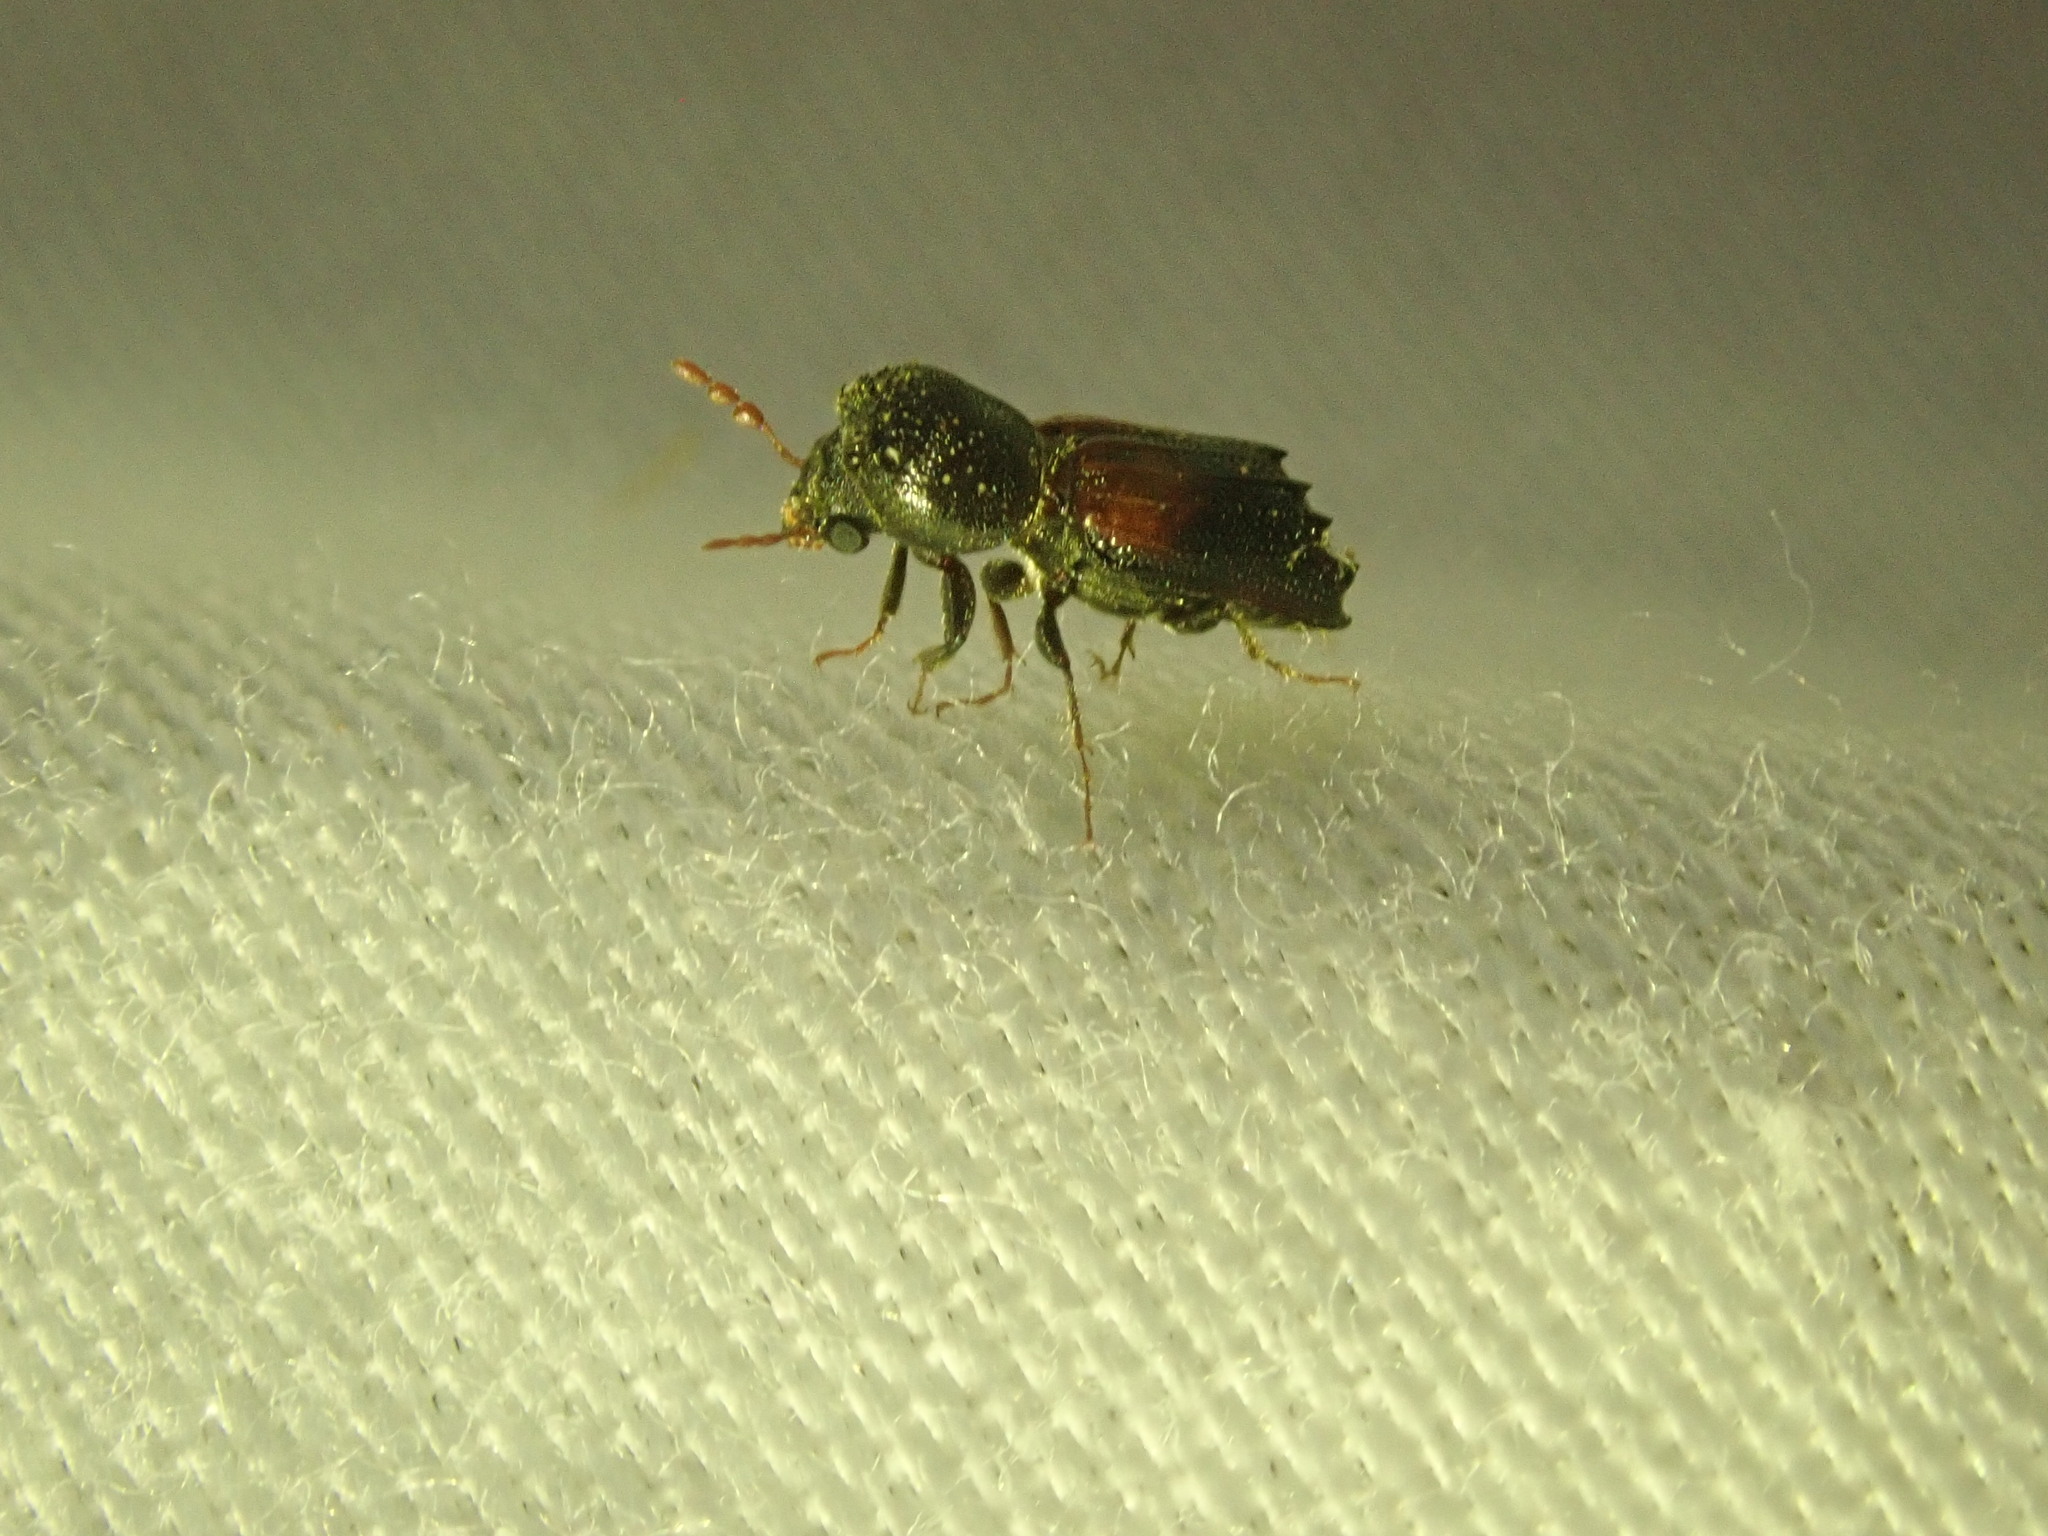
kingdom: Animalia
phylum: Arthropoda
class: Insecta
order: Coleoptera
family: Bostrichidae
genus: Xylobiops
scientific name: Xylobiops basilaris
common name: Red-shouldered bostrichid
